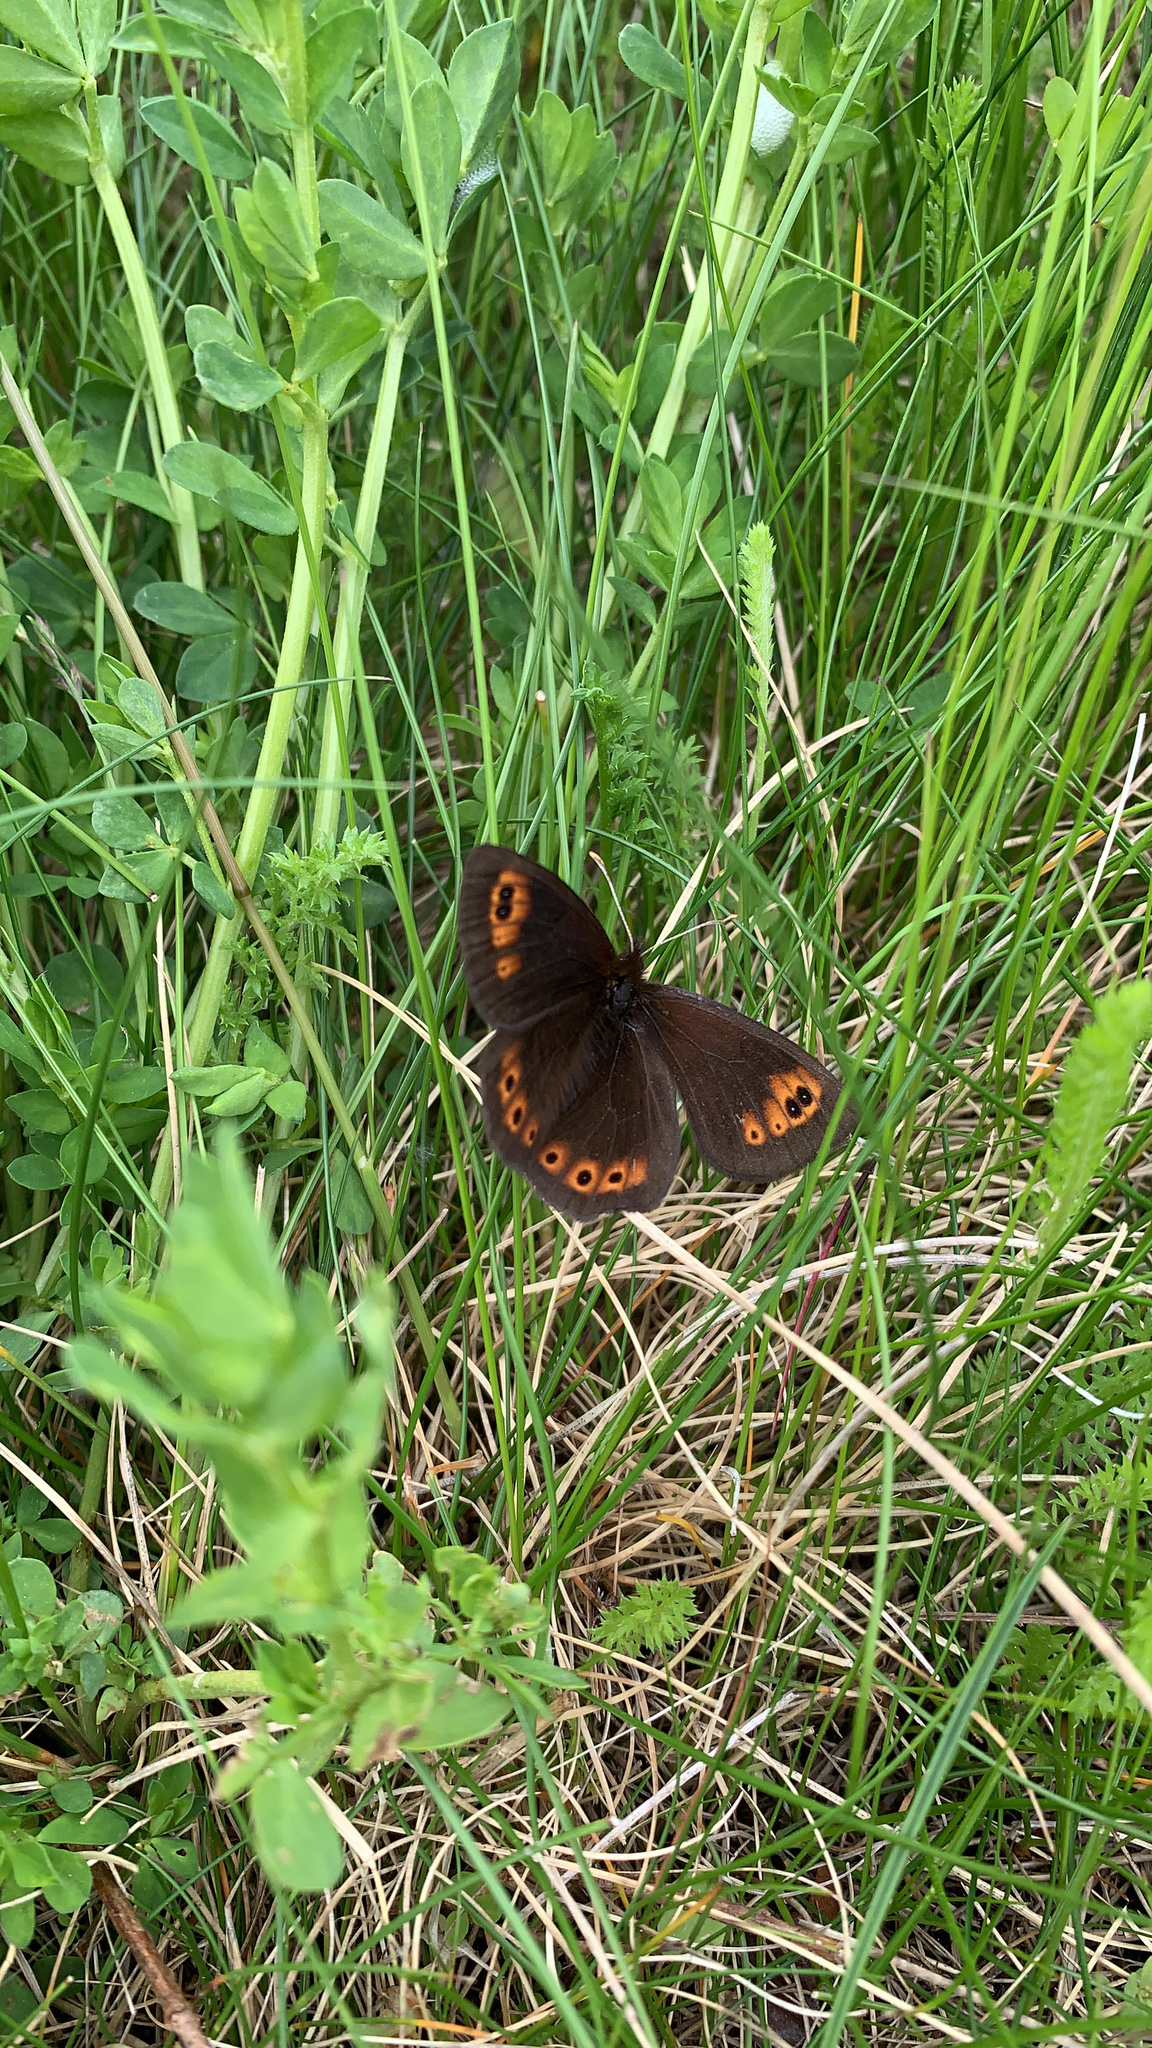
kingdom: Animalia
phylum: Arthropoda
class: Insecta
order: Lepidoptera
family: Nymphalidae
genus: Erebia
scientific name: Erebia epipsodea
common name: Common alpine
